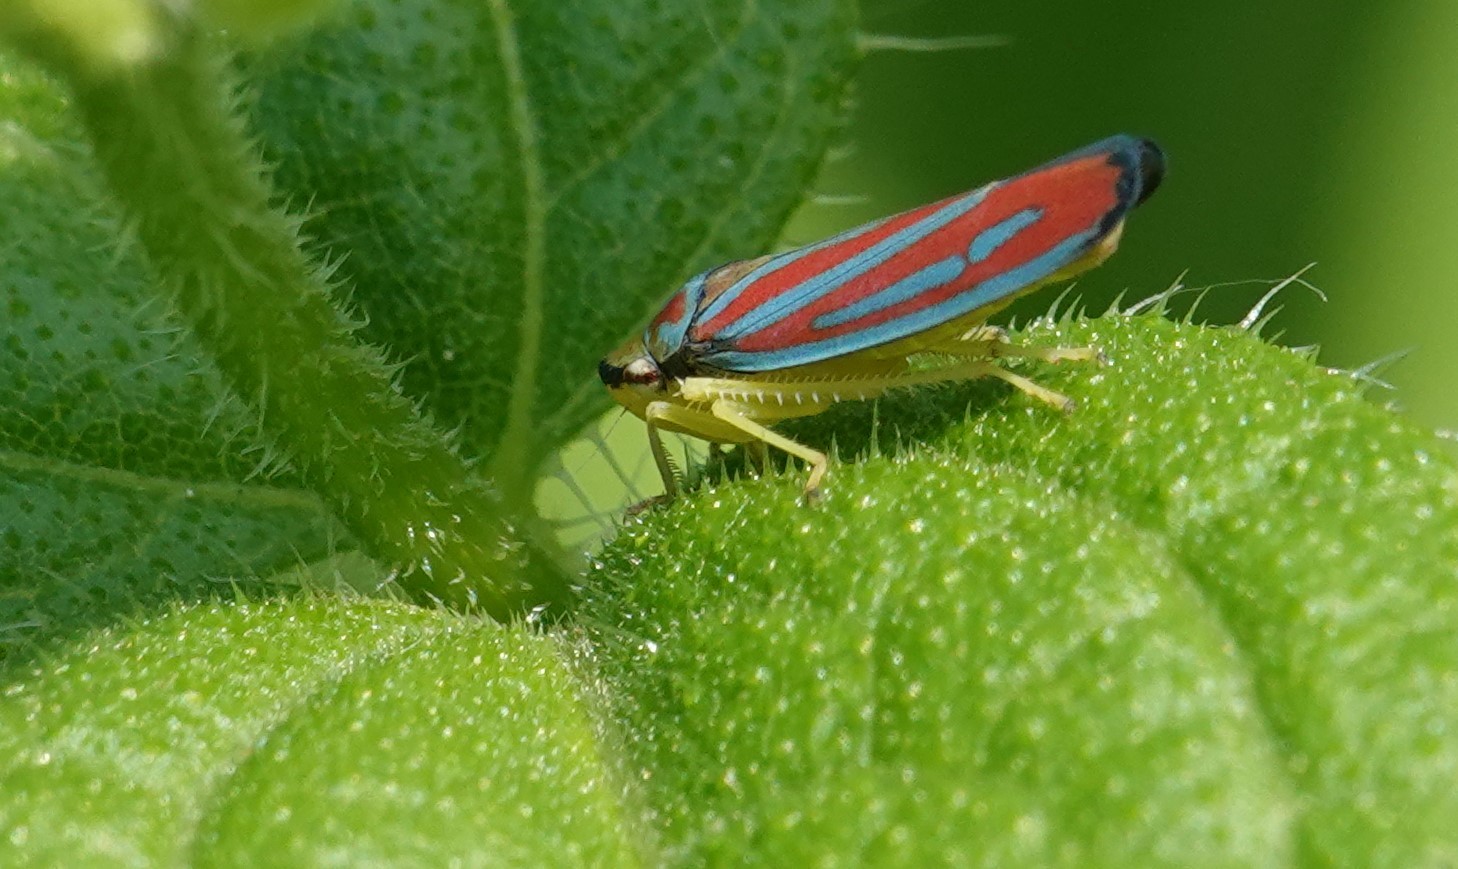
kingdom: Animalia
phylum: Arthropoda
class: Insecta
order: Hemiptera
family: Cicadellidae
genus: Graphocephala
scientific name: Graphocephala coccinea
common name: Candy-striped leafhopper
